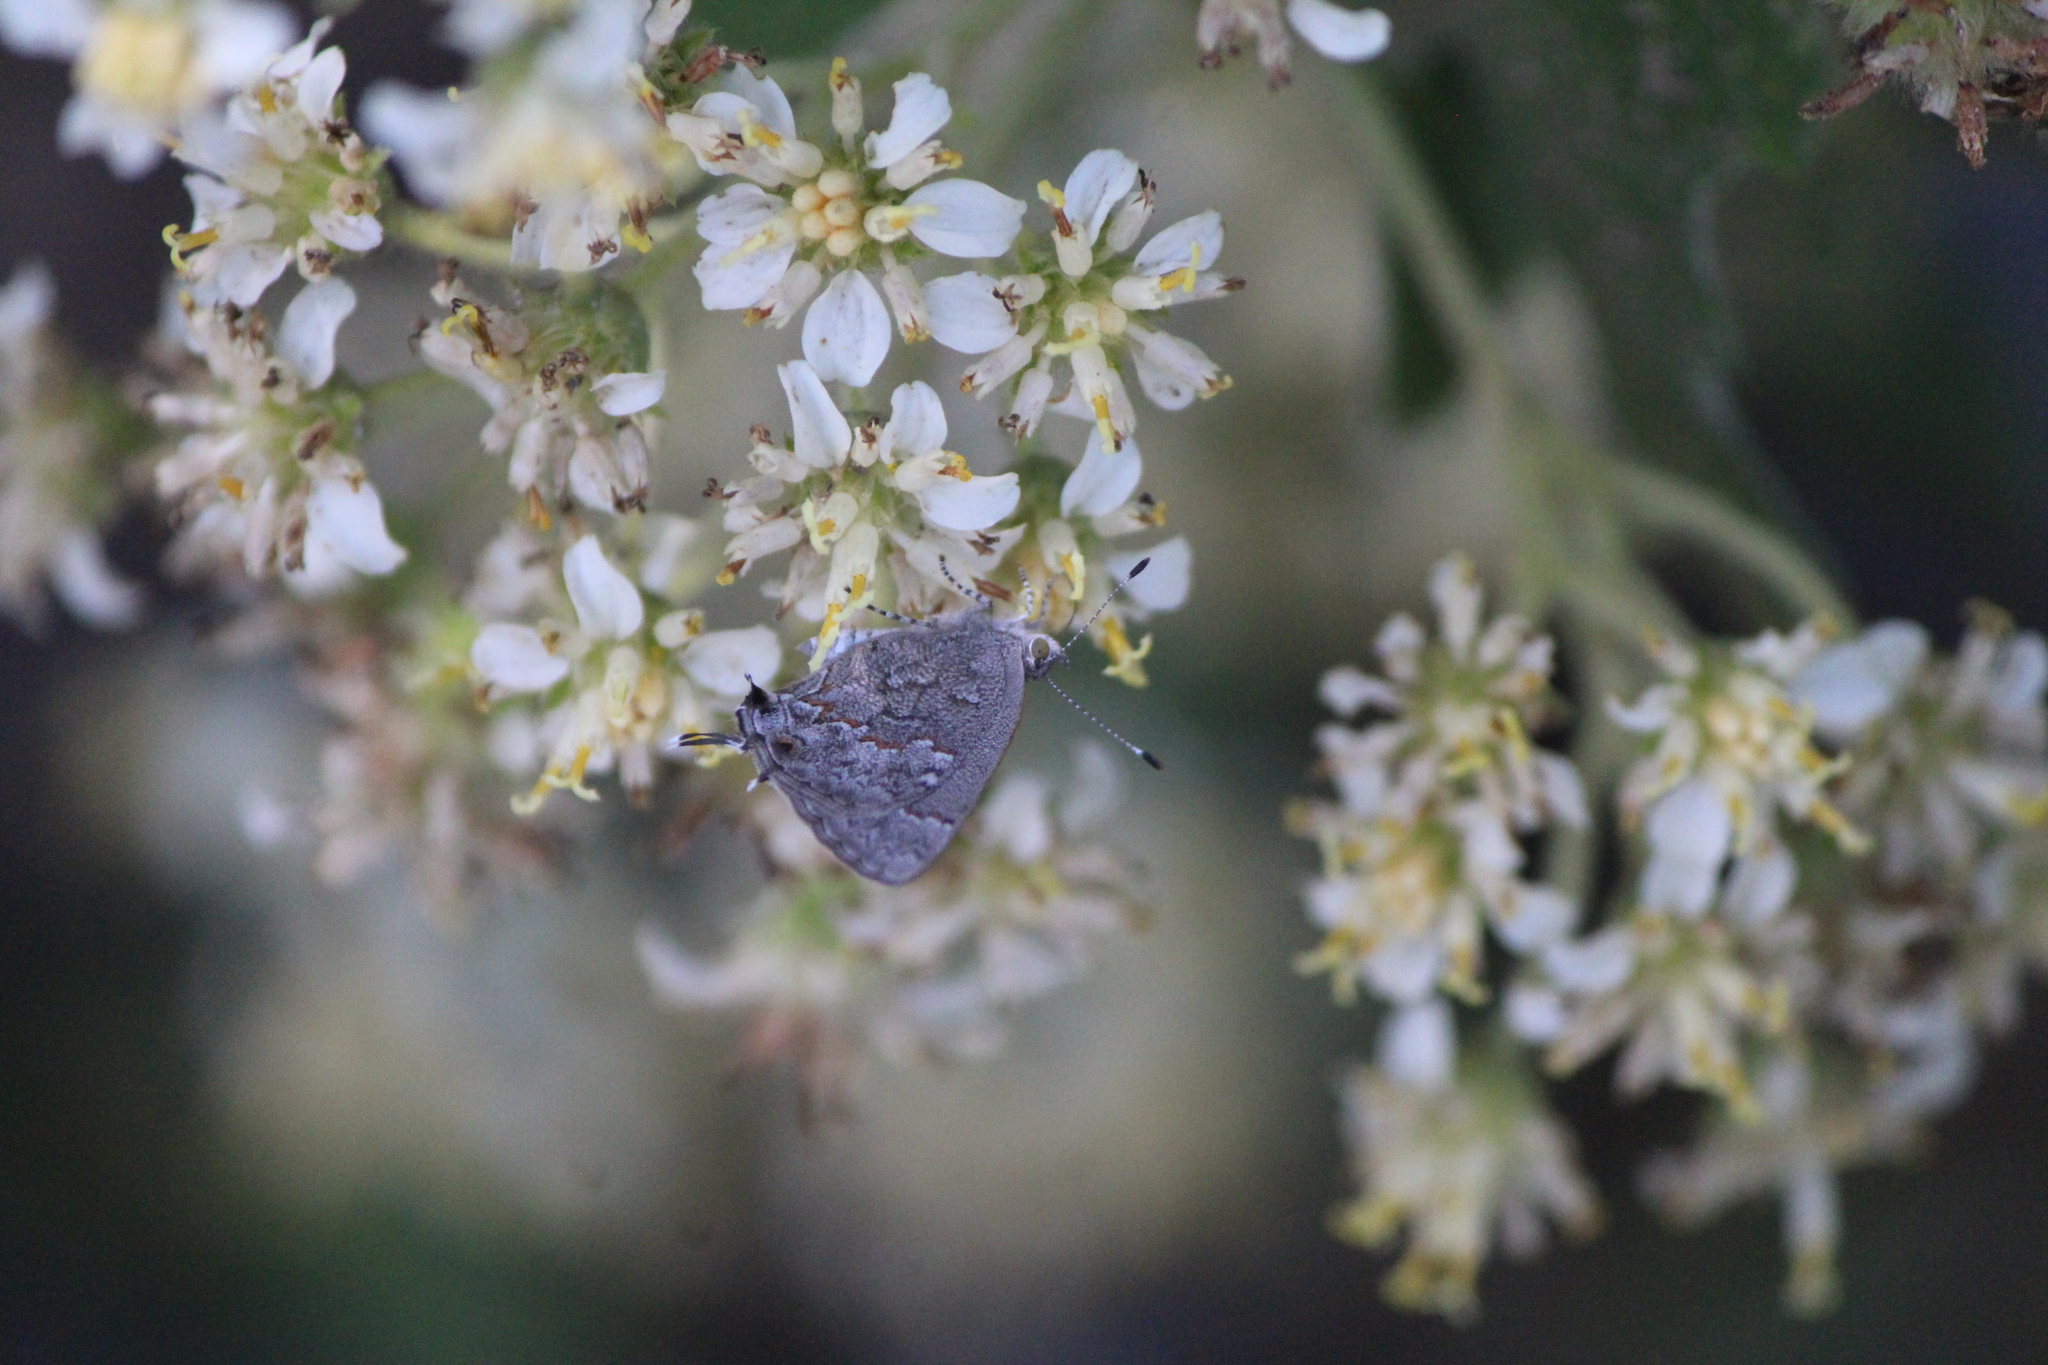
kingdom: Animalia
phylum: Arthropoda
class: Insecta
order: Lepidoptera
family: Lycaenidae
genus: Ministrymon
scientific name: Ministrymon leda
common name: Leda ministreak
